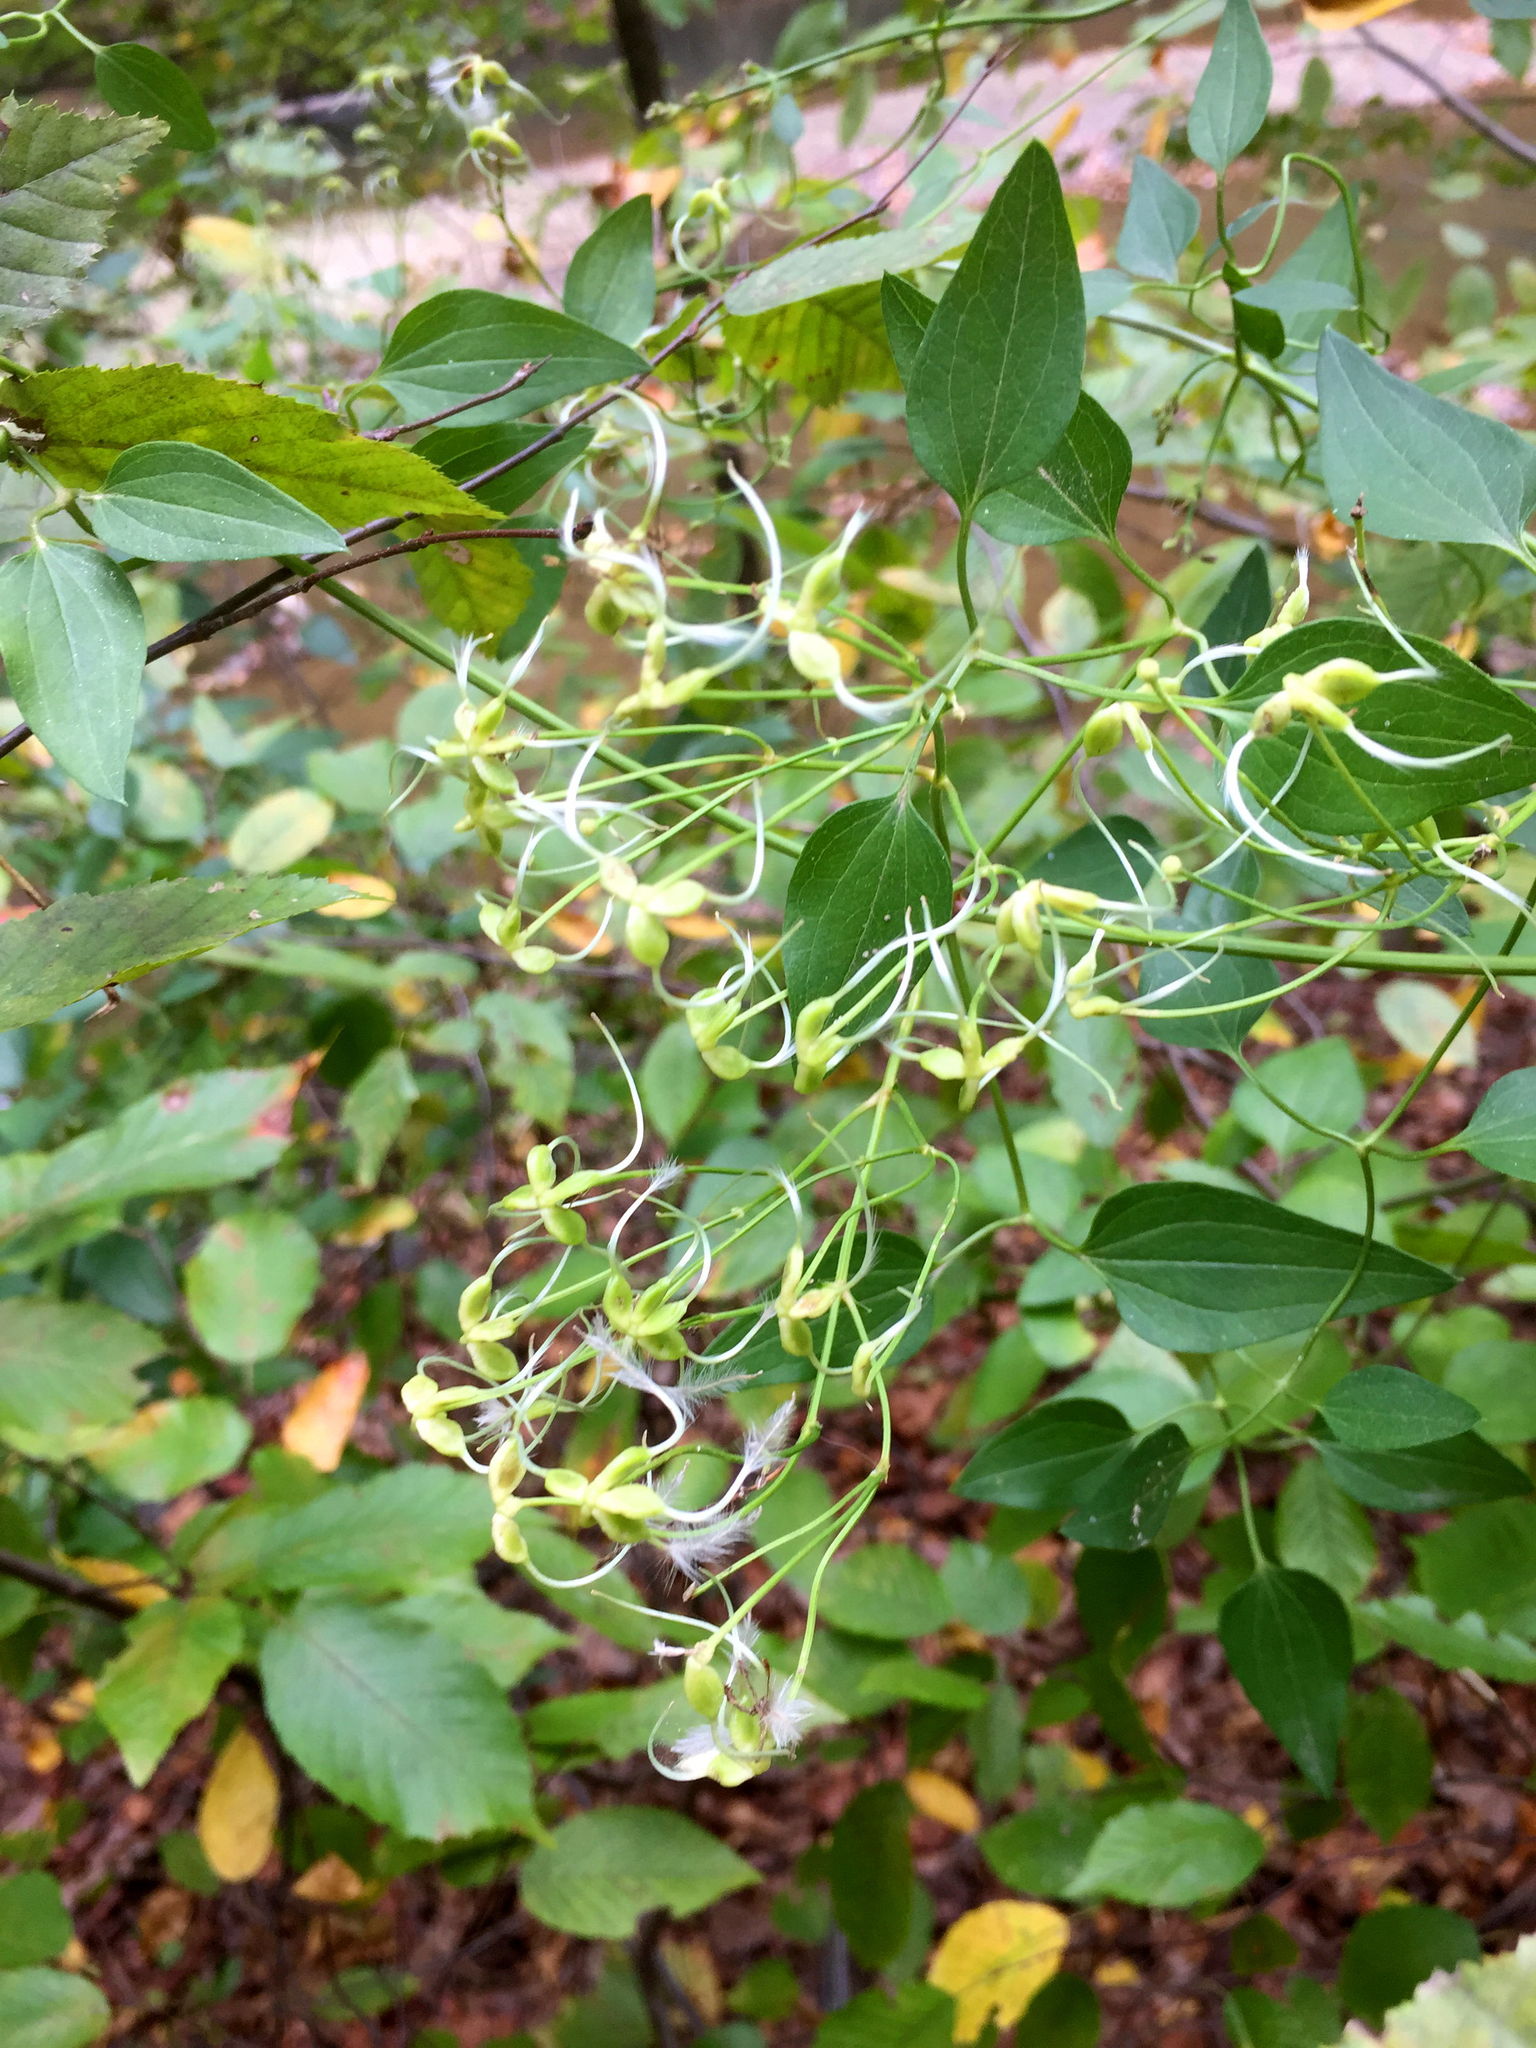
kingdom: Plantae
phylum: Tracheophyta
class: Magnoliopsida
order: Ranunculales
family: Ranunculaceae
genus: Clematis
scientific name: Clematis terniflora
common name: Sweet autumn clematis
